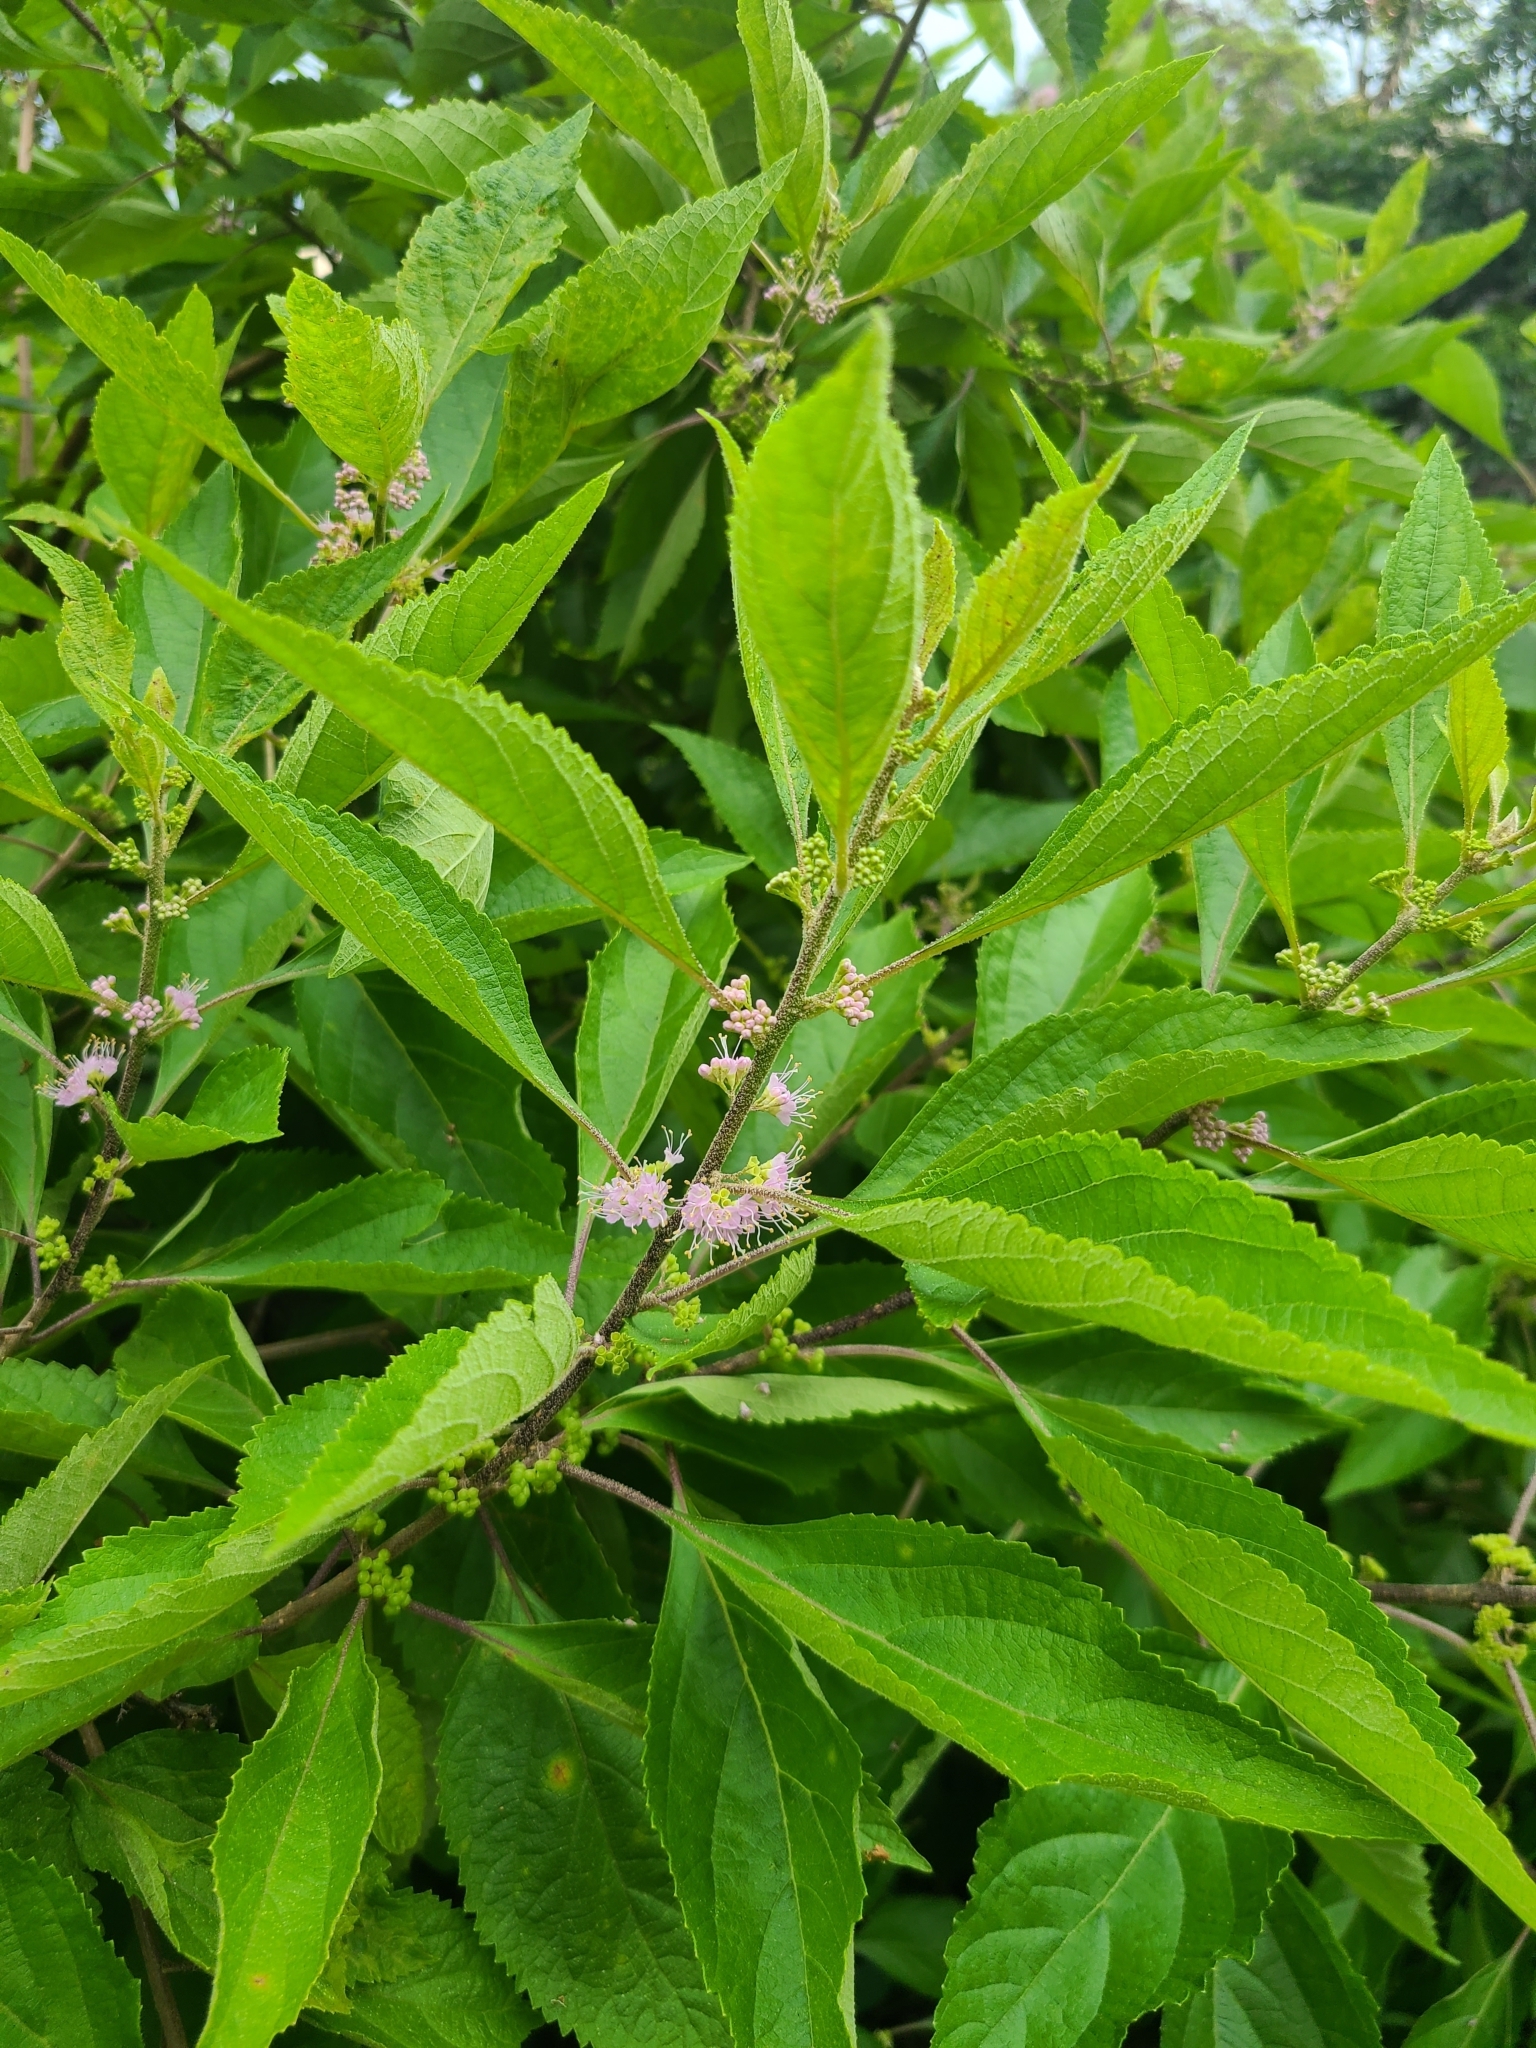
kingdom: Plantae
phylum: Tracheophyta
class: Magnoliopsida
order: Lamiales
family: Lamiaceae
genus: Callicarpa
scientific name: Callicarpa americana
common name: American beautyberry
